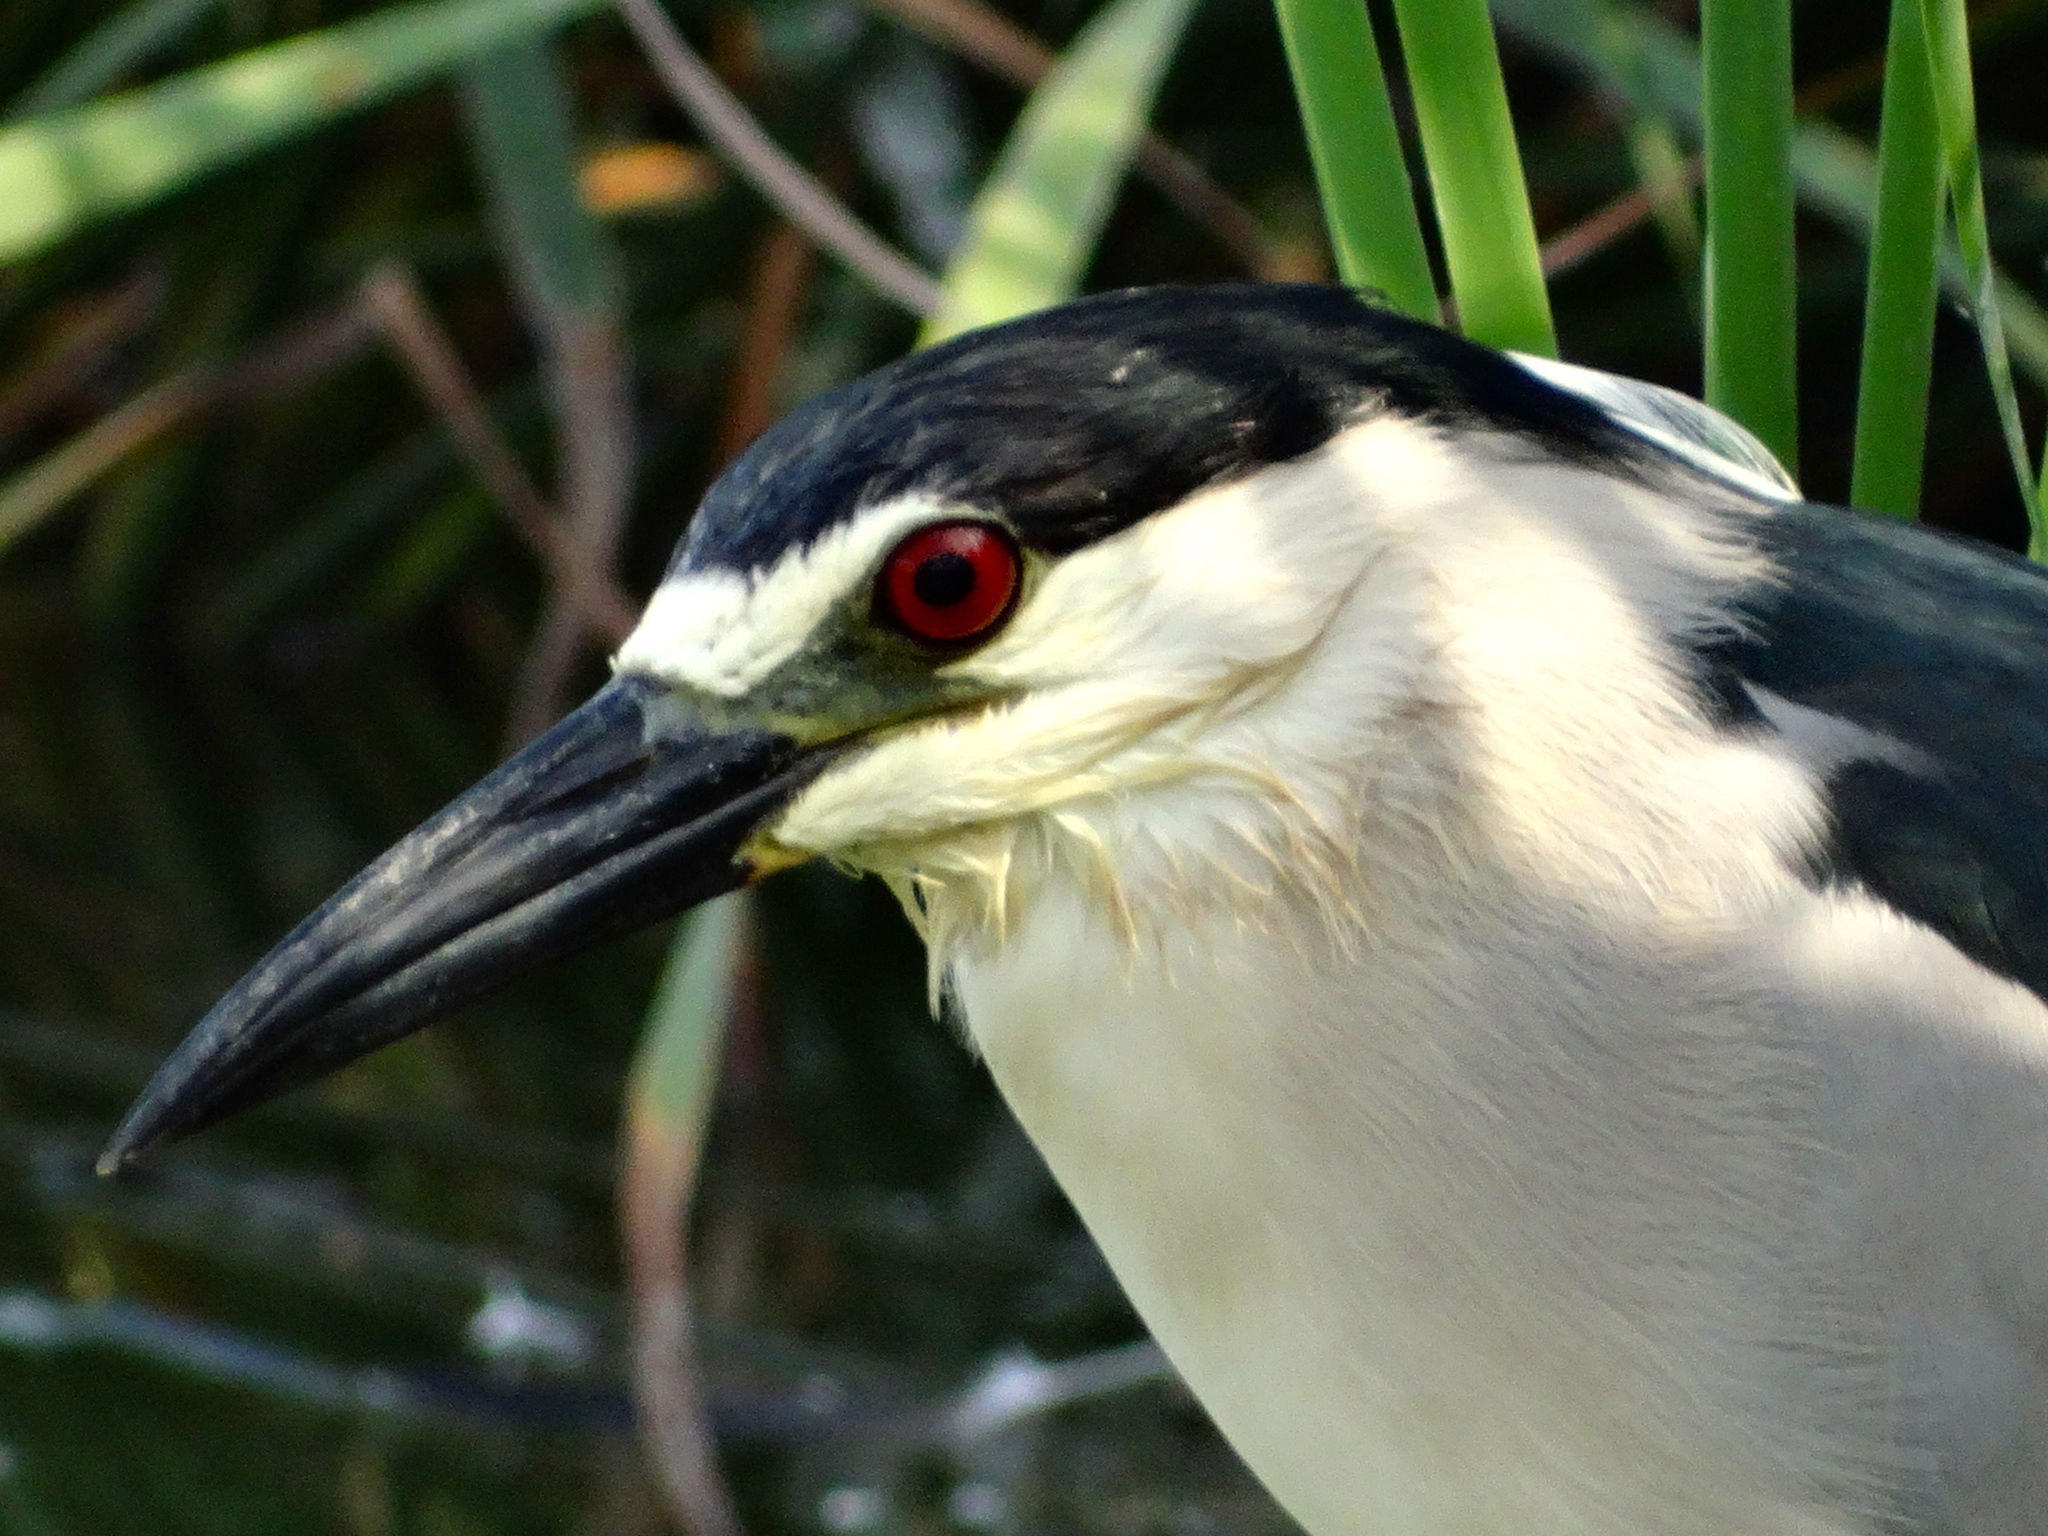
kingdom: Animalia
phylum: Chordata
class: Aves
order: Pelecaniformes
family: Ardeidae
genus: Nycticorax
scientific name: Nycticorax nycticorax
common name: Black-crowned night heron
